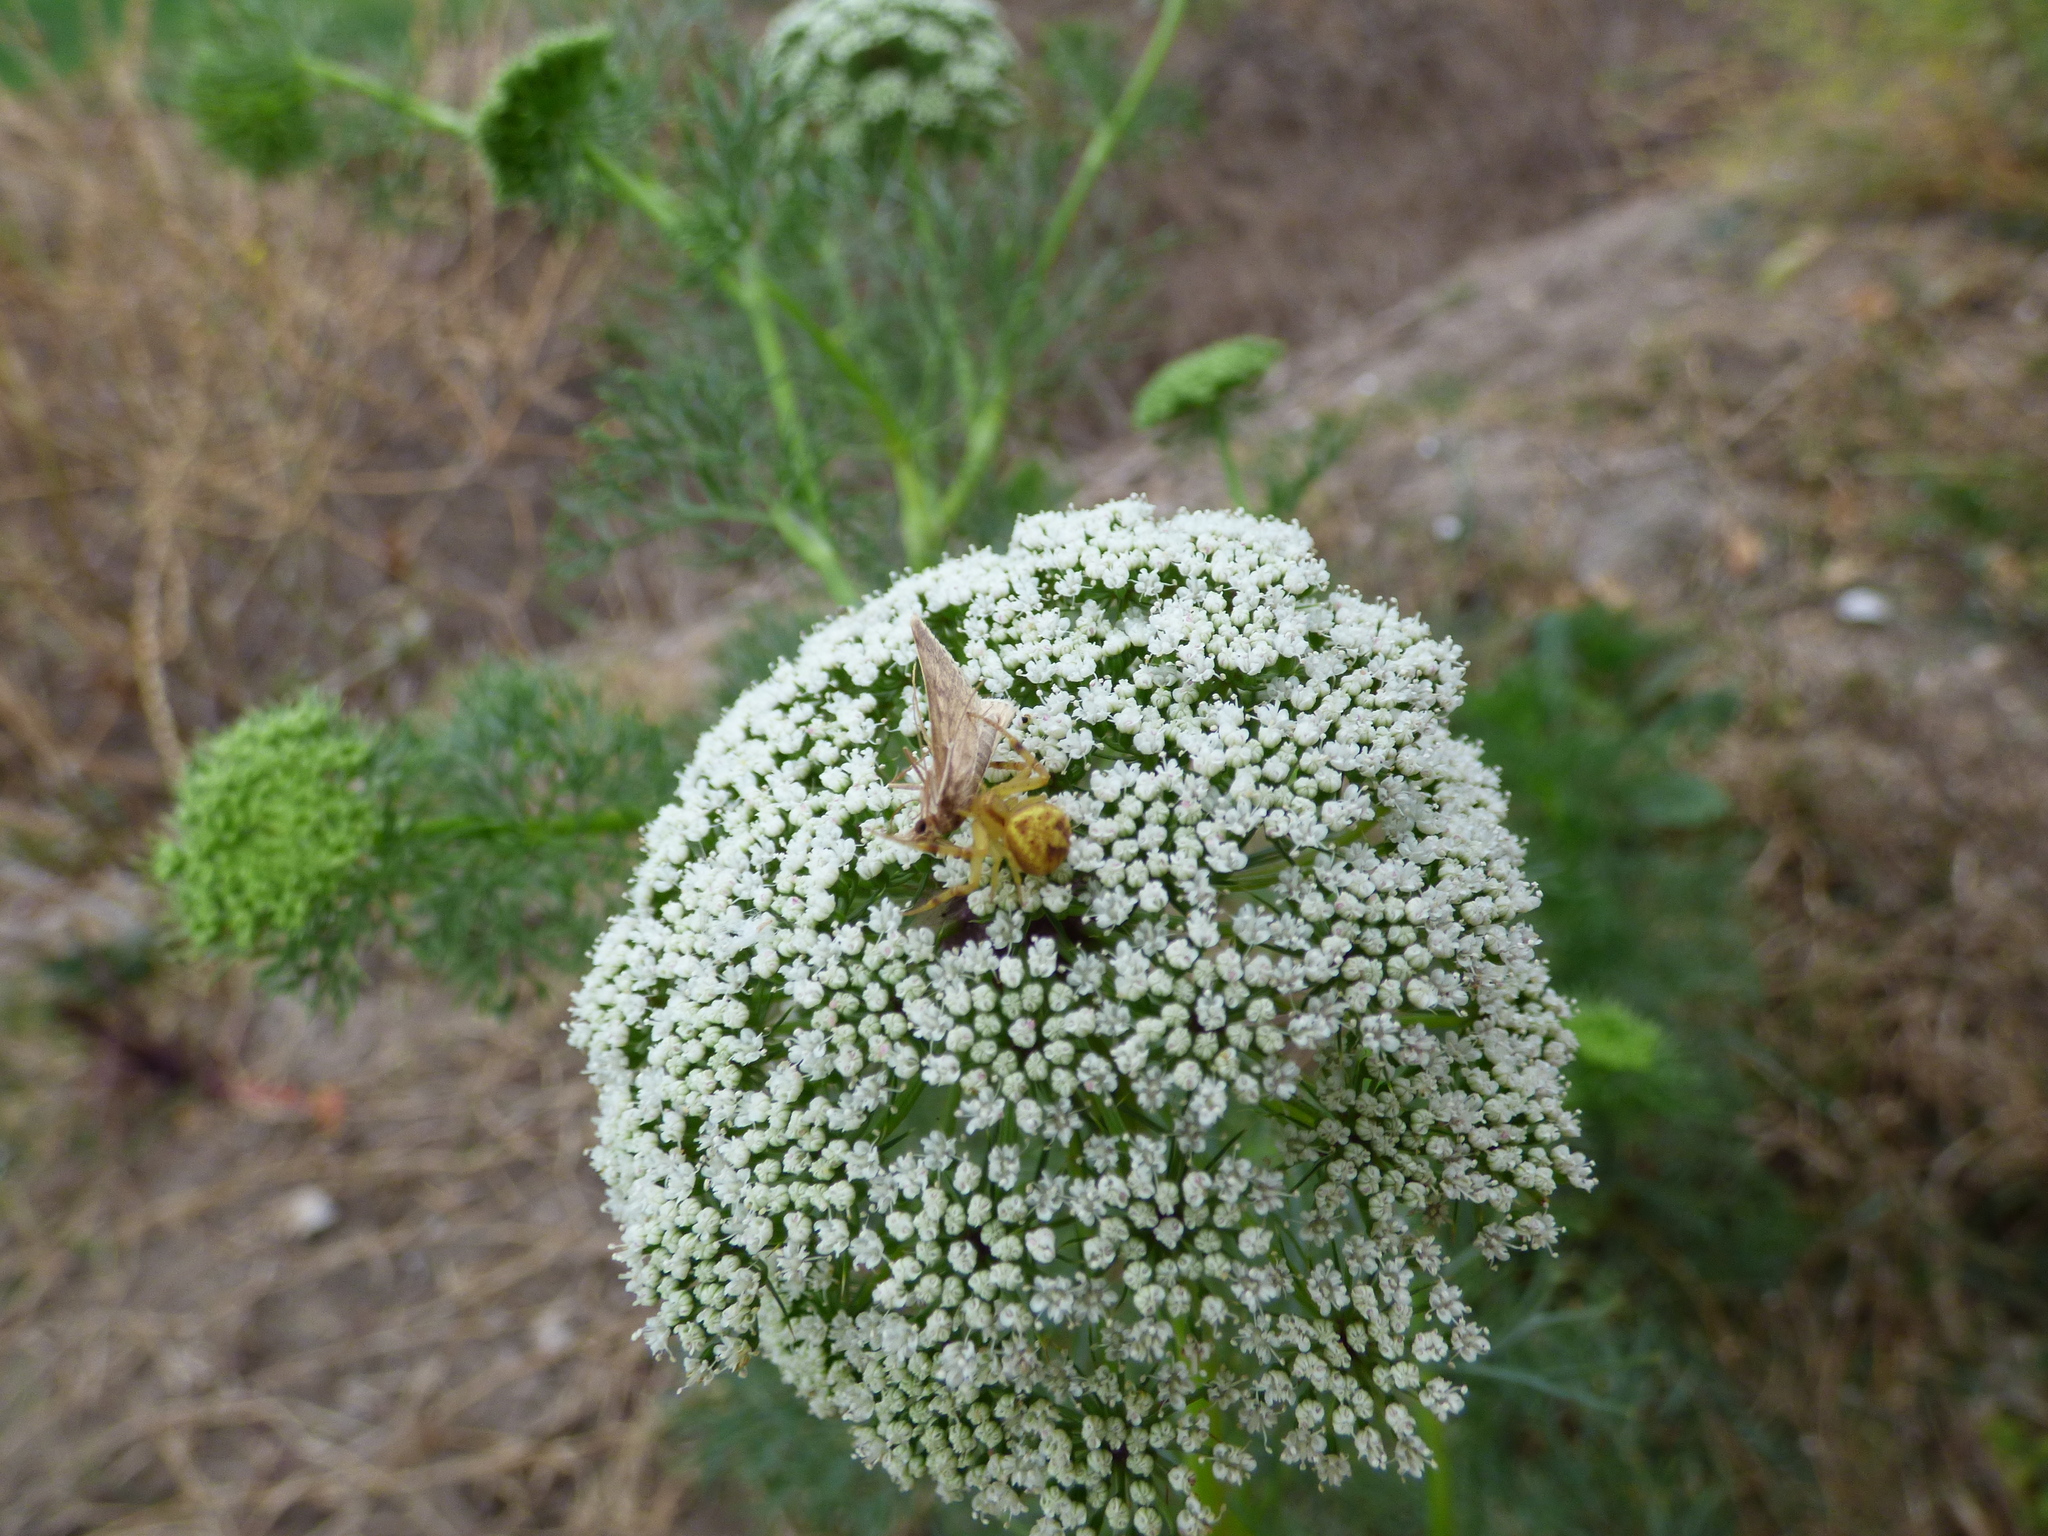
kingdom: Animalia
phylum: Arthropoda
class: Arachnida
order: Araneae
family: Thomisidae
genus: Misumenops
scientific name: Misumenops
